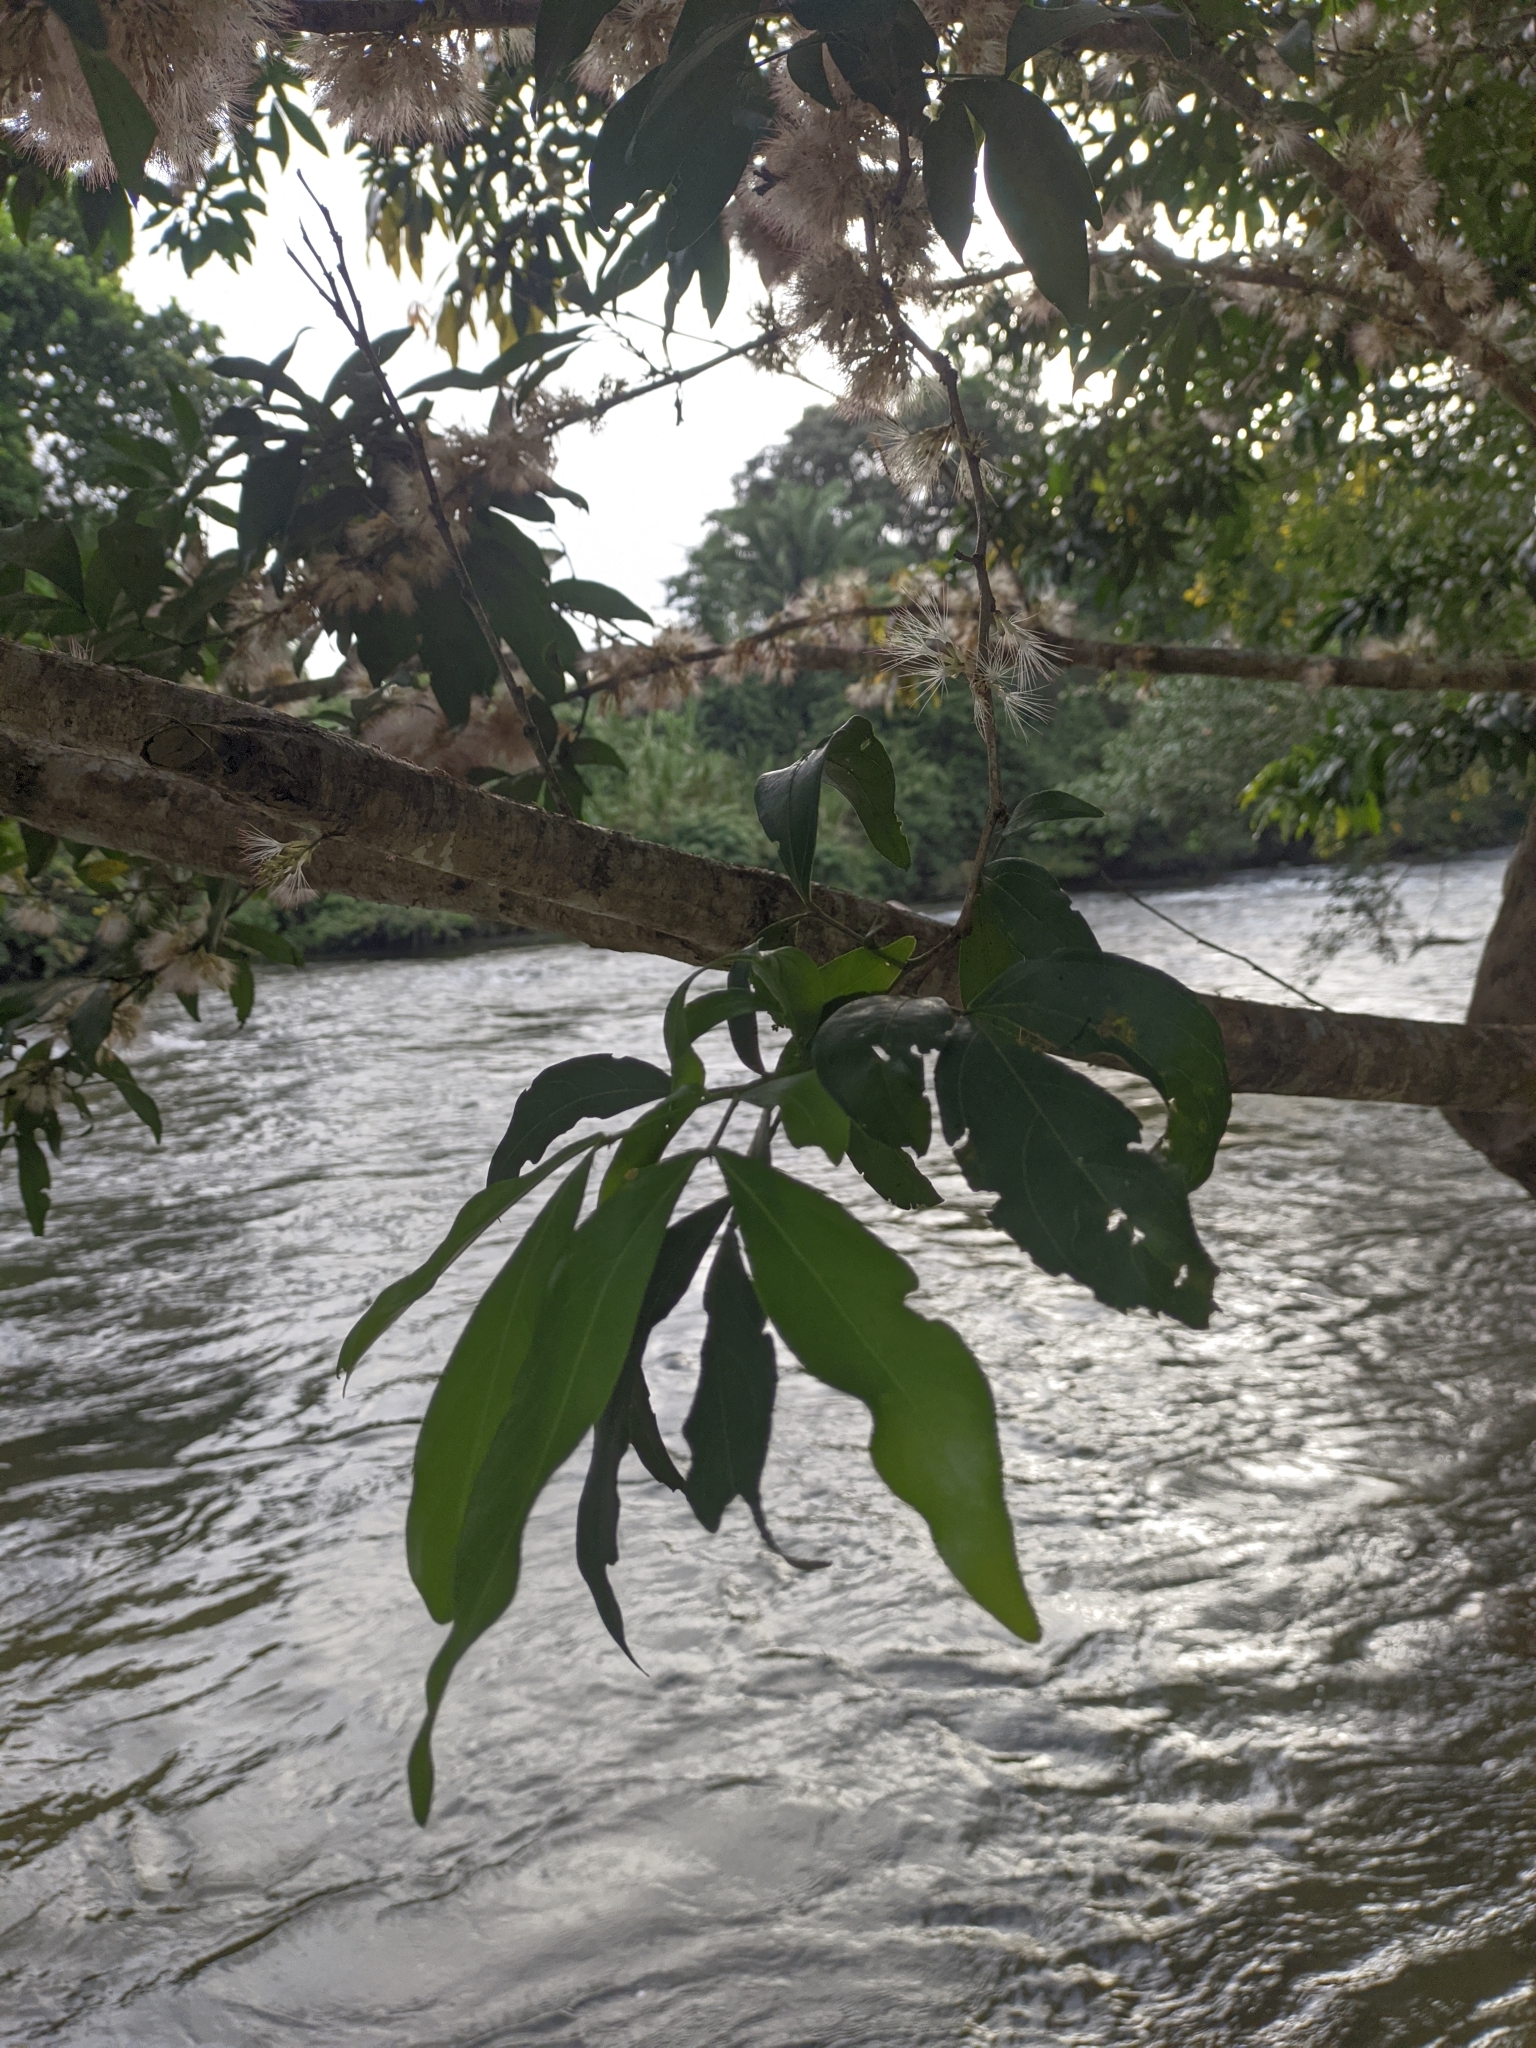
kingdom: Plantae
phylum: Tracheophyta
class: Magnoliopsida
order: Fabales
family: Fabaceae
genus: Zygia
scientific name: Zygia longifolia
